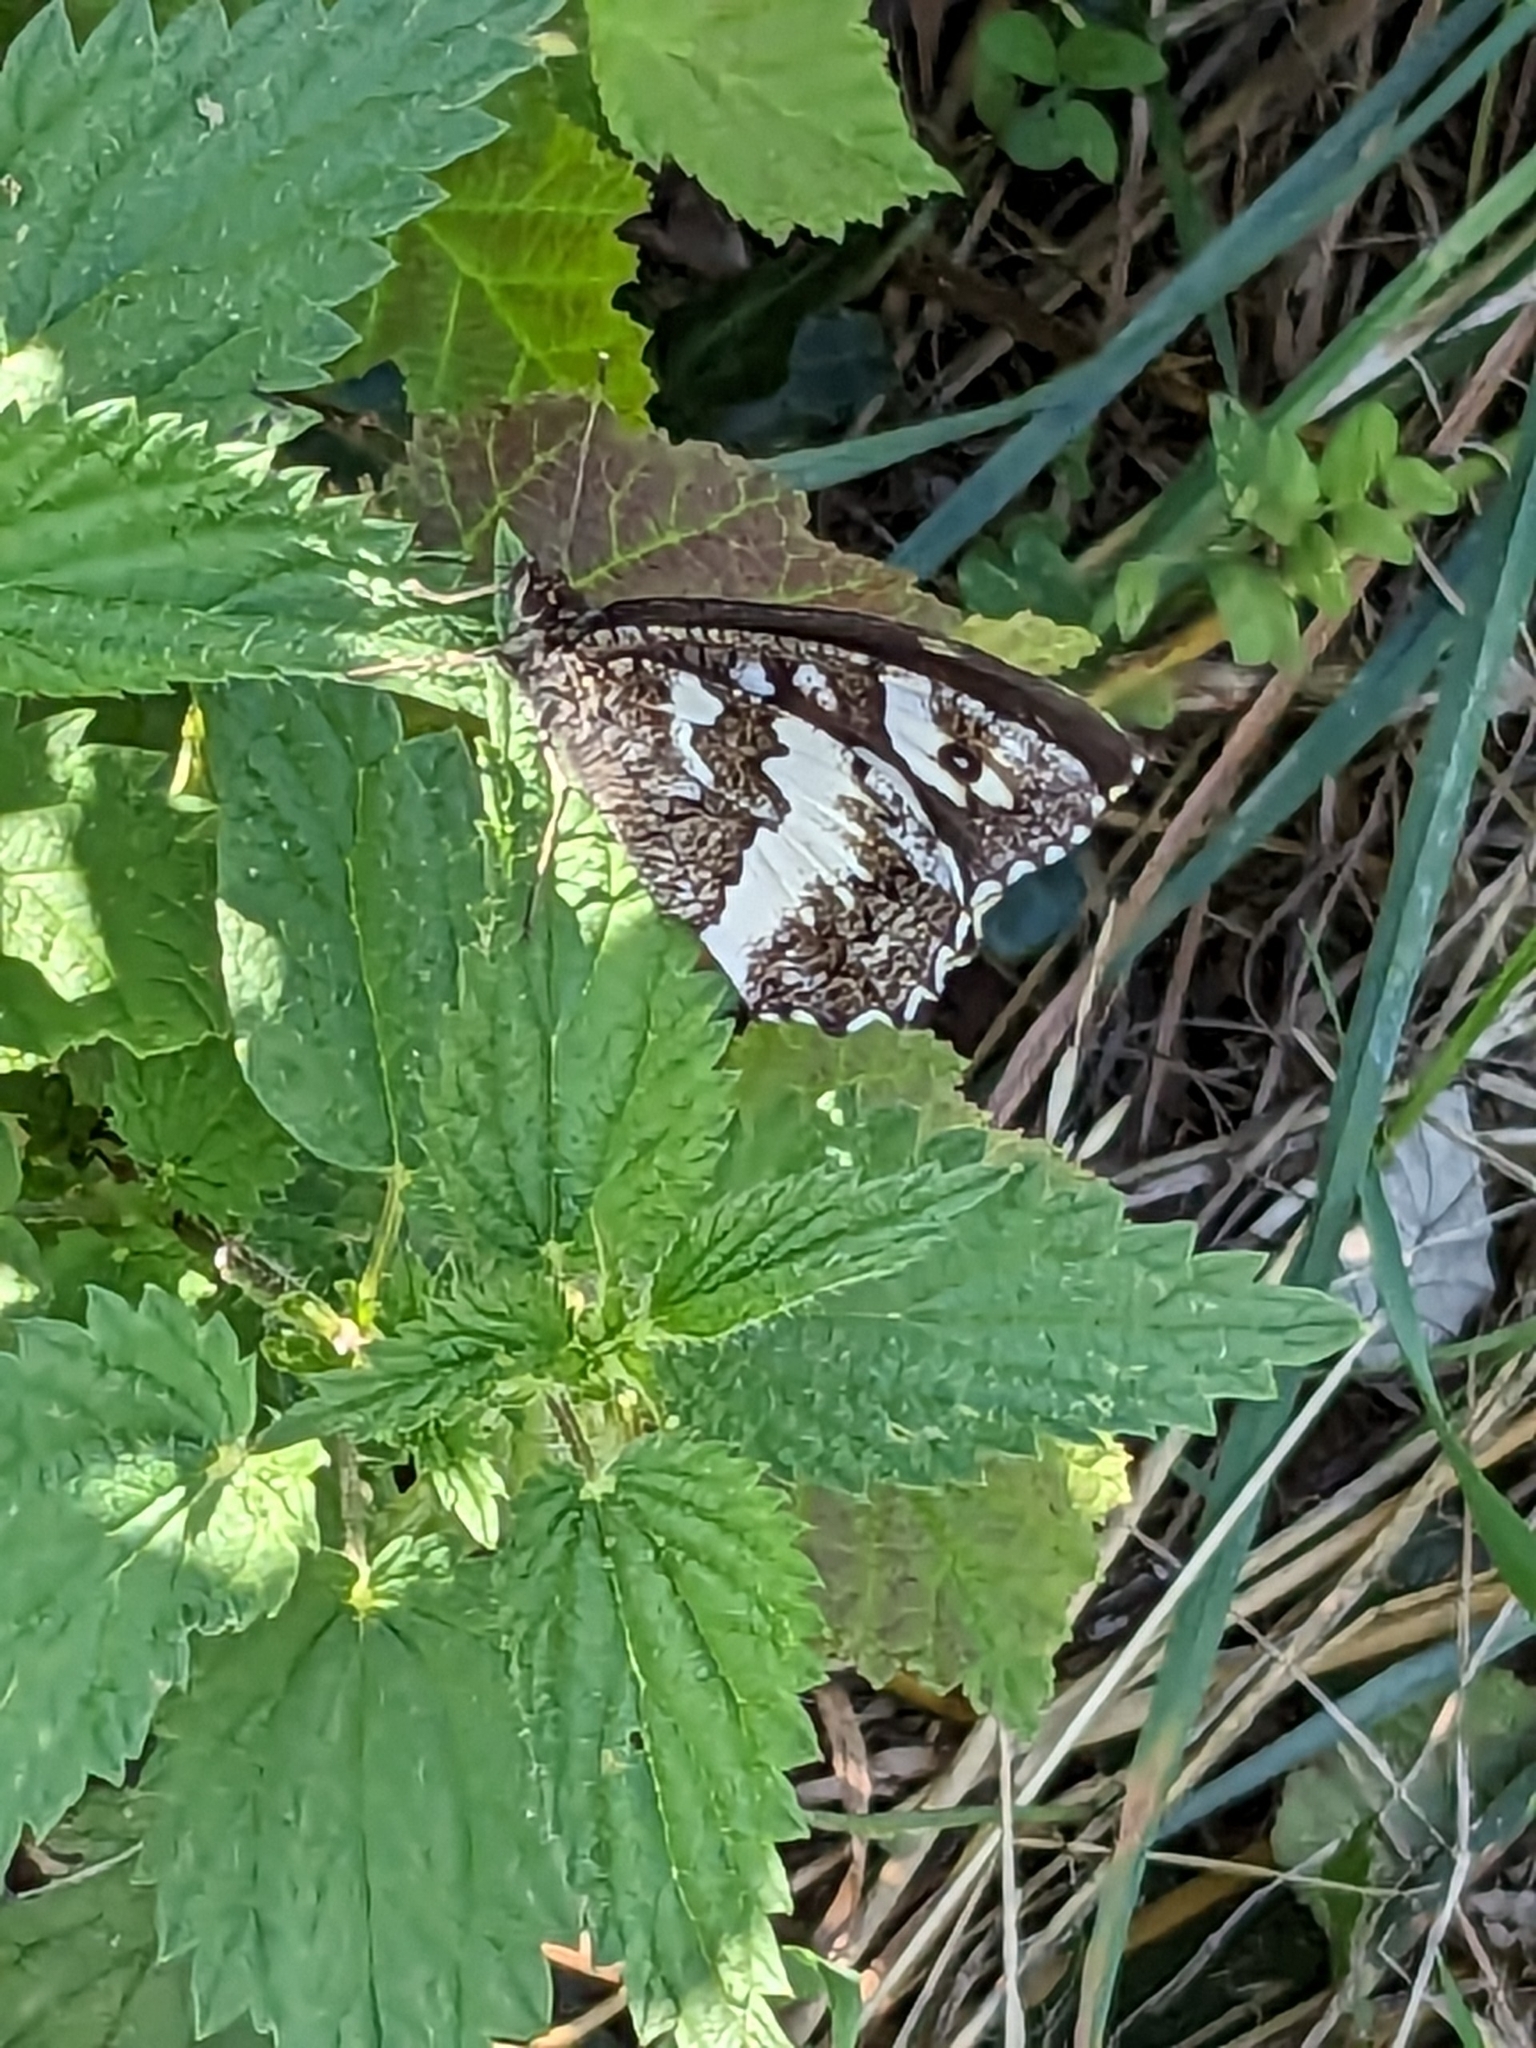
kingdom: Animalia
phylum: Arthropoda
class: Insecta
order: Lepidoptera
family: Lycaenidae
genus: Loweia
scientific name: Loweia tityrus
